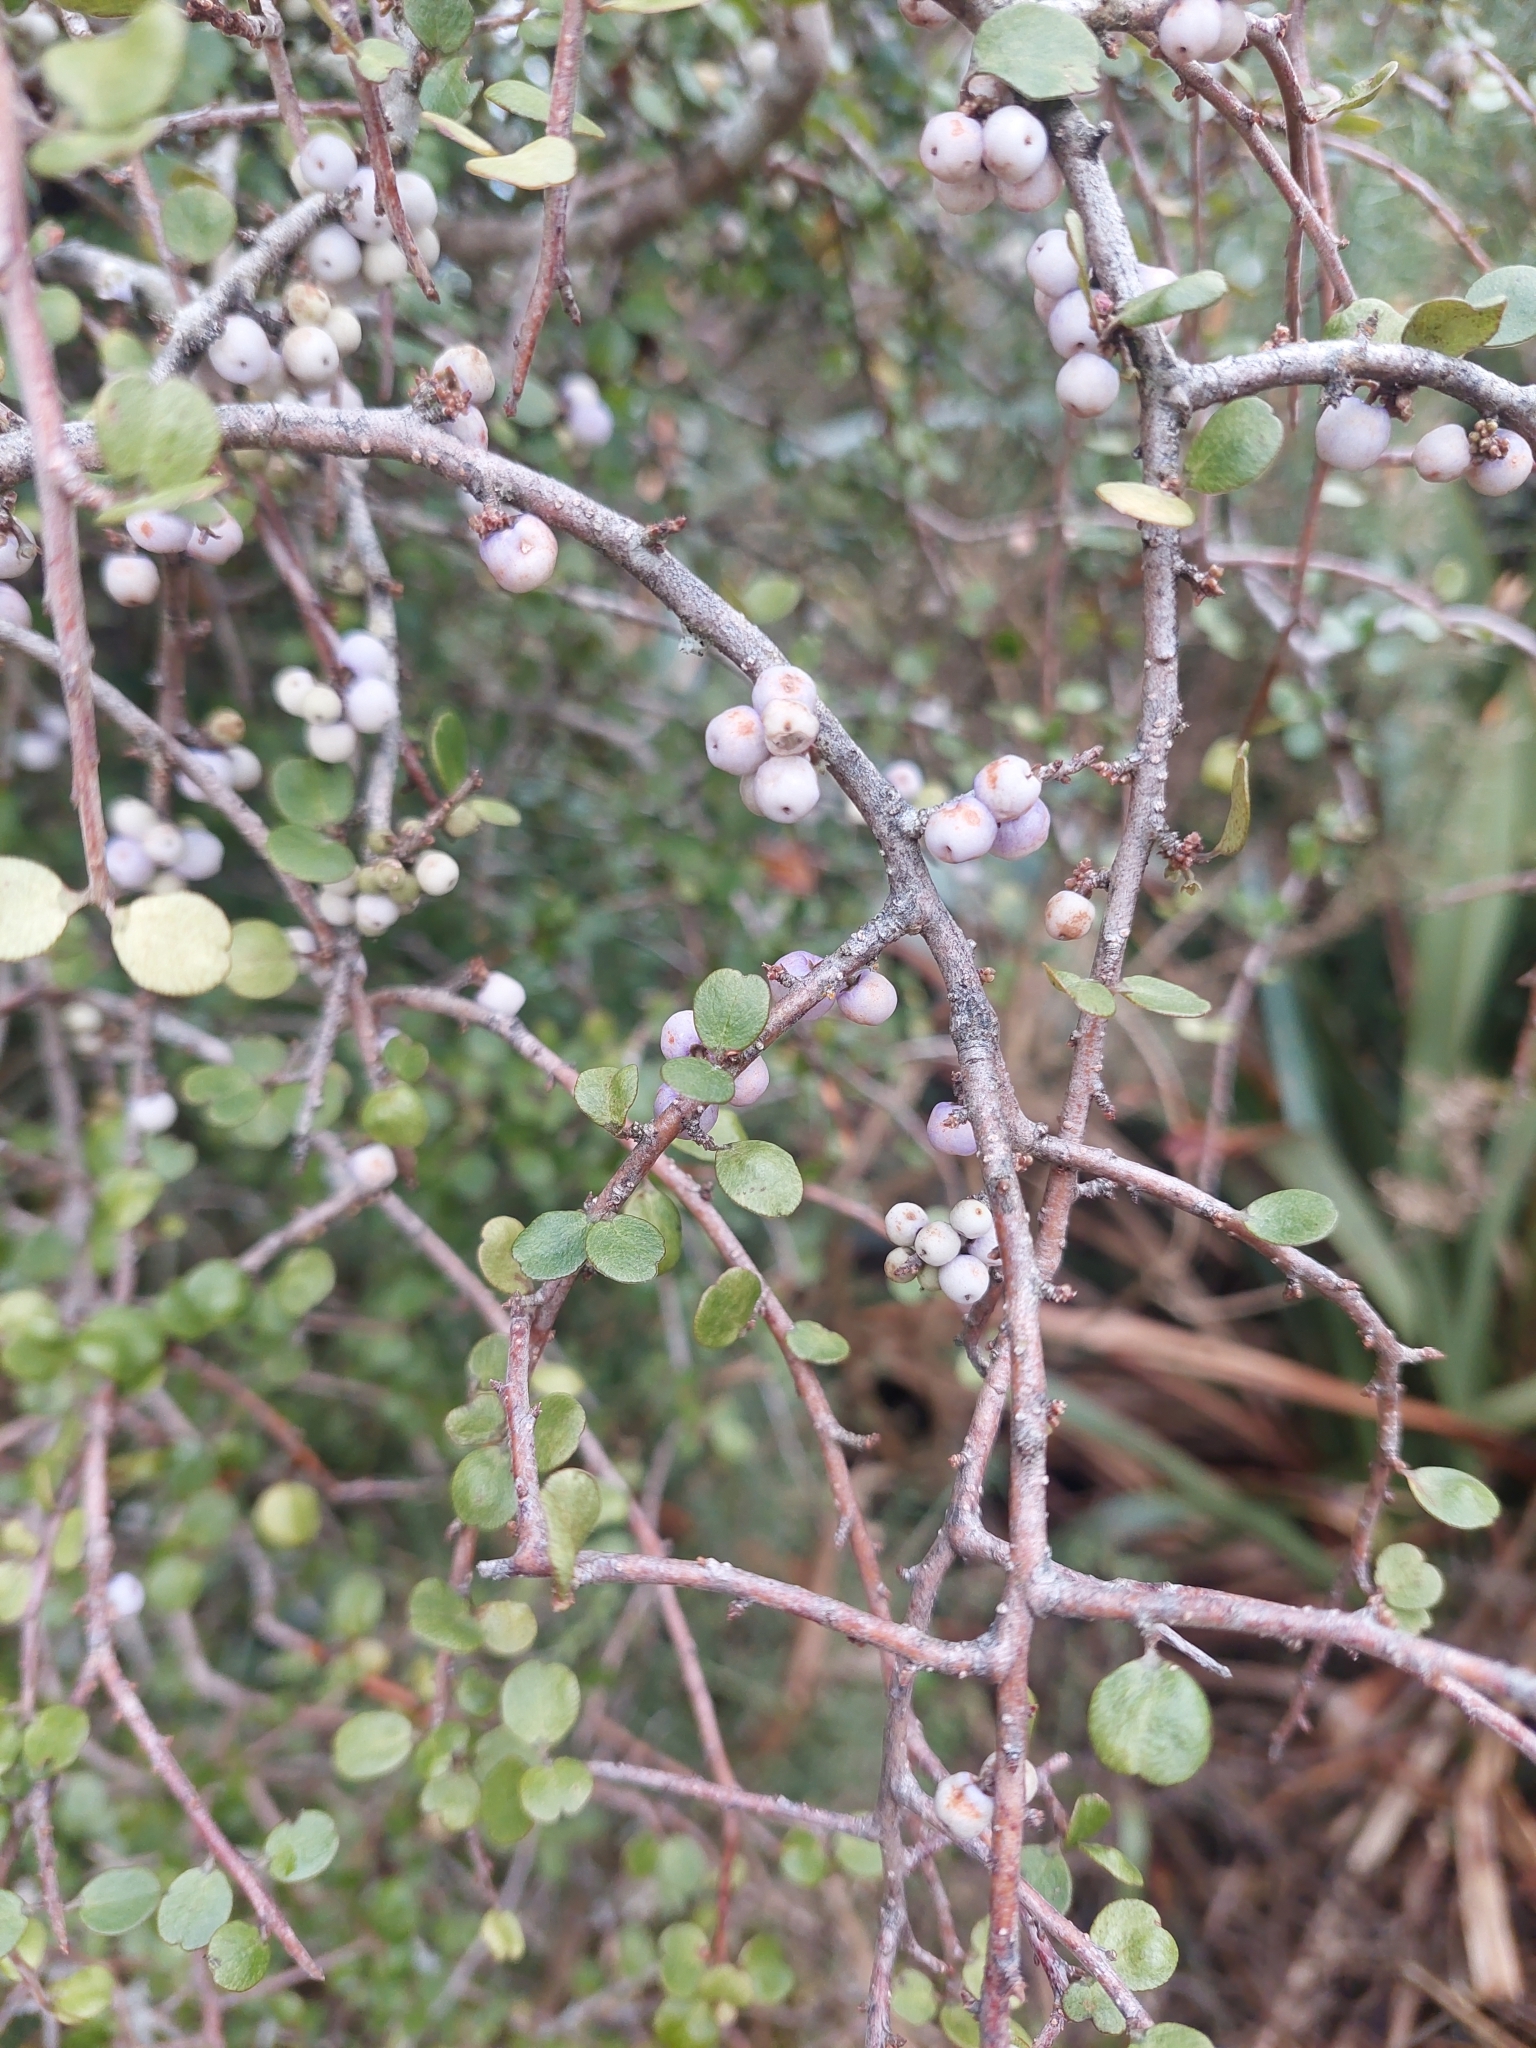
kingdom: Plantae
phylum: Tracheophyta
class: Magnoliopsida
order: Ericales
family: Primulaceae
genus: Myrsine
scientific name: Myrsine divaricata
